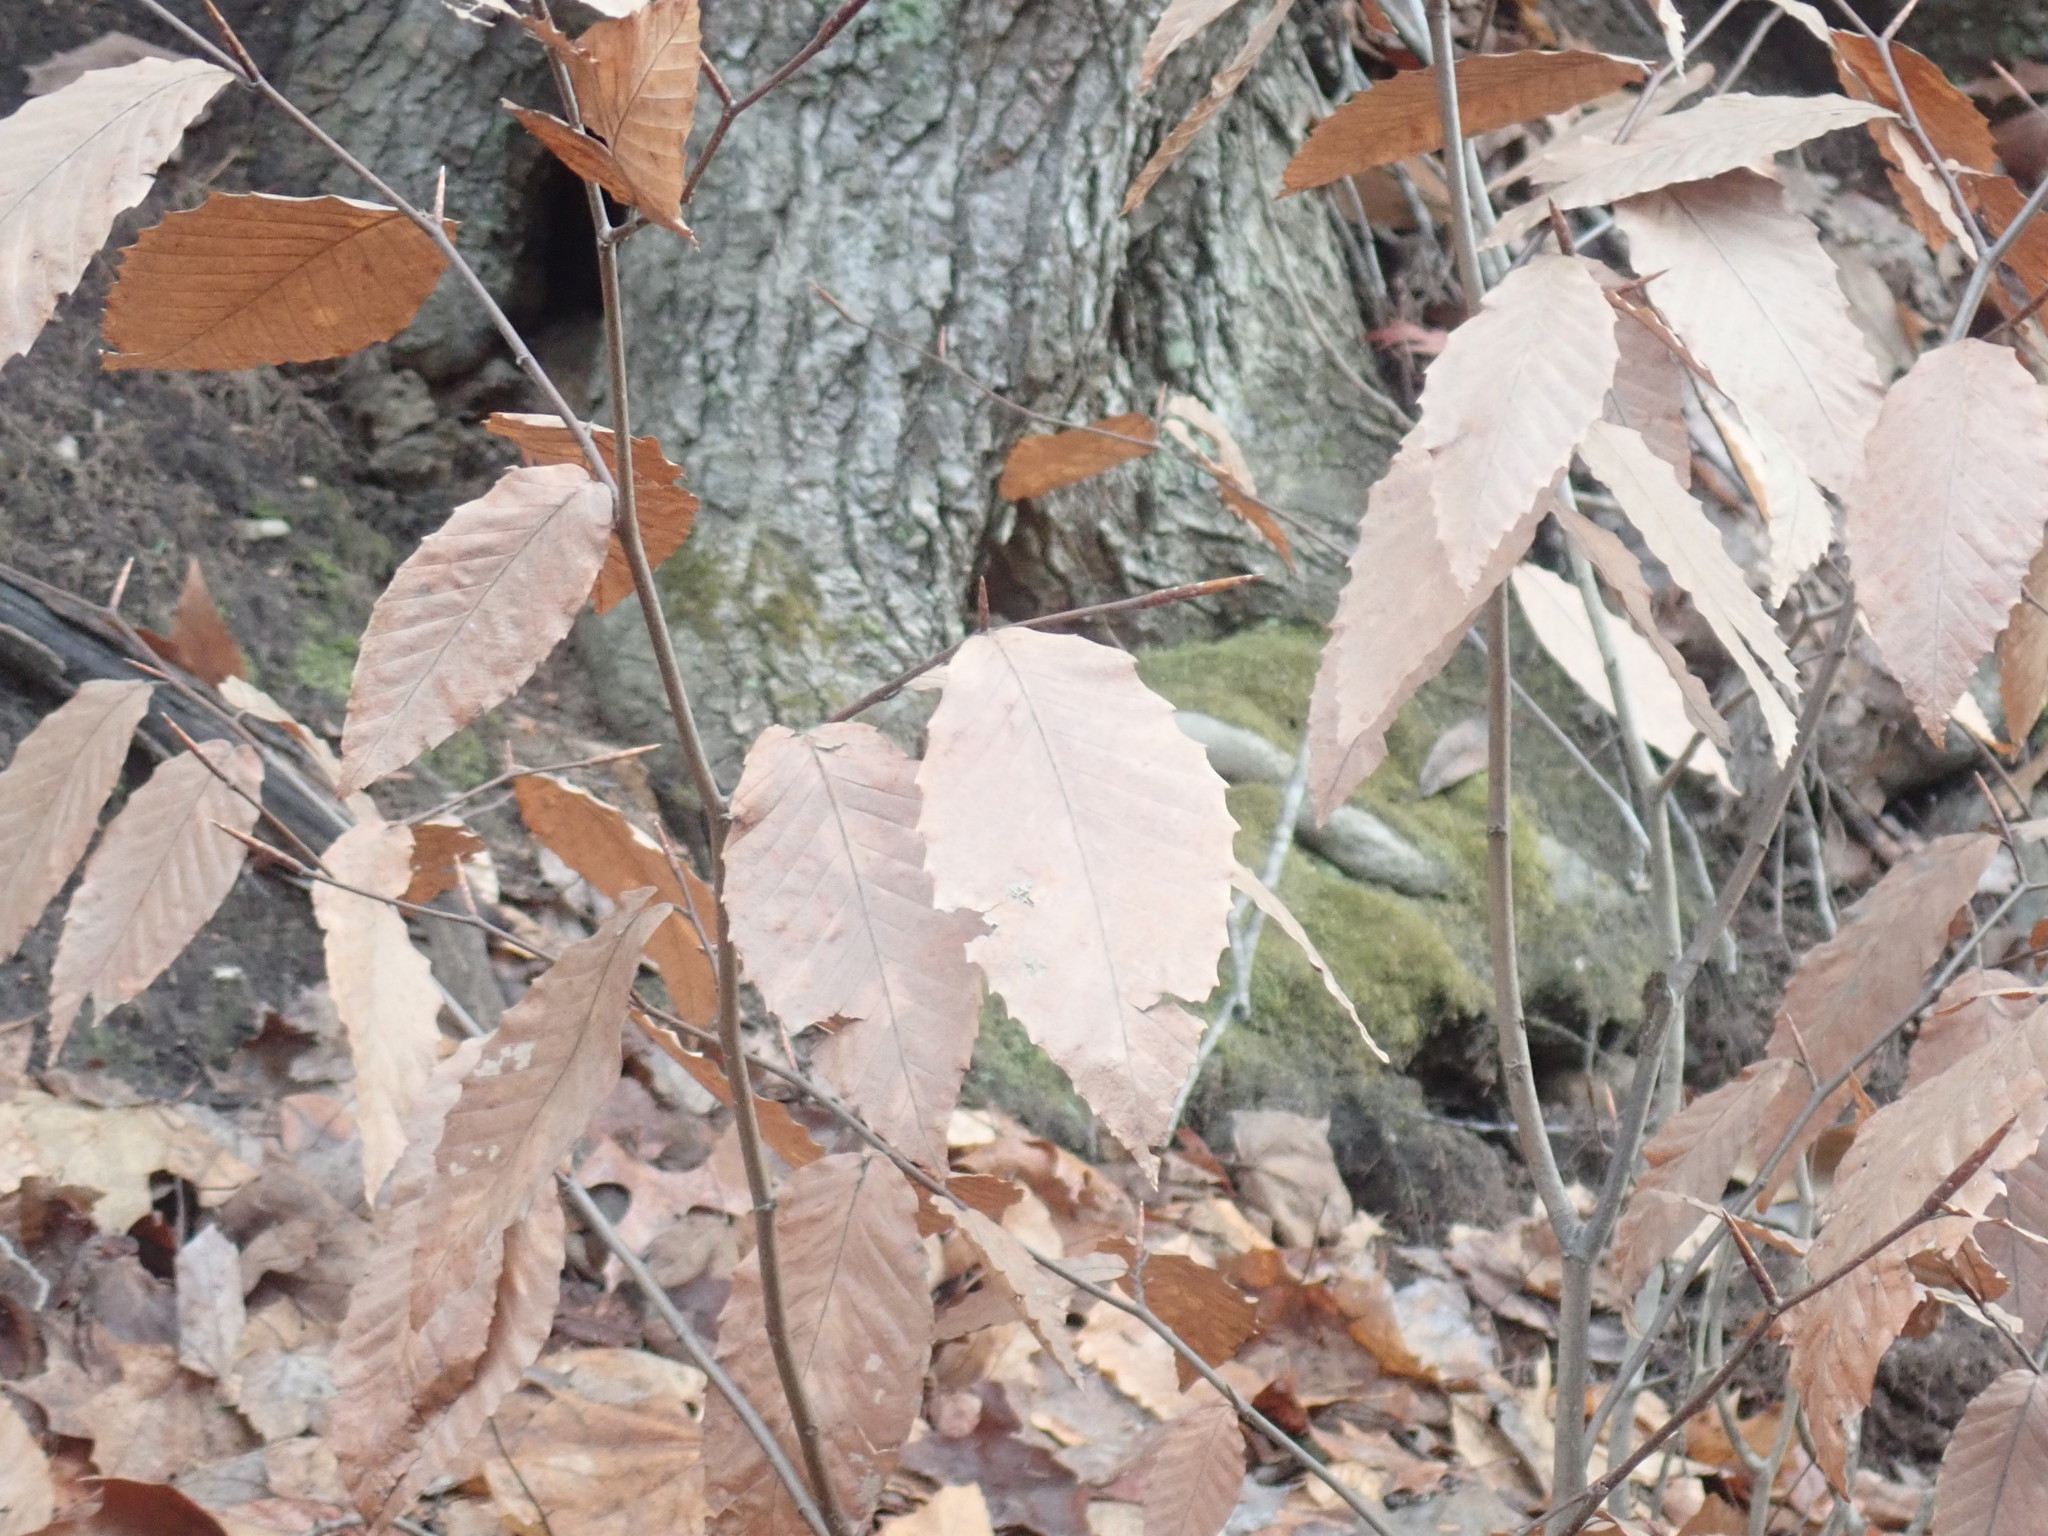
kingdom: Plantae
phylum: Tracheophyta
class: Magnoliopsida
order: Fagales
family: Fagaceae
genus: Fagus
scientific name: Fagus grandifolia
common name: American beech
